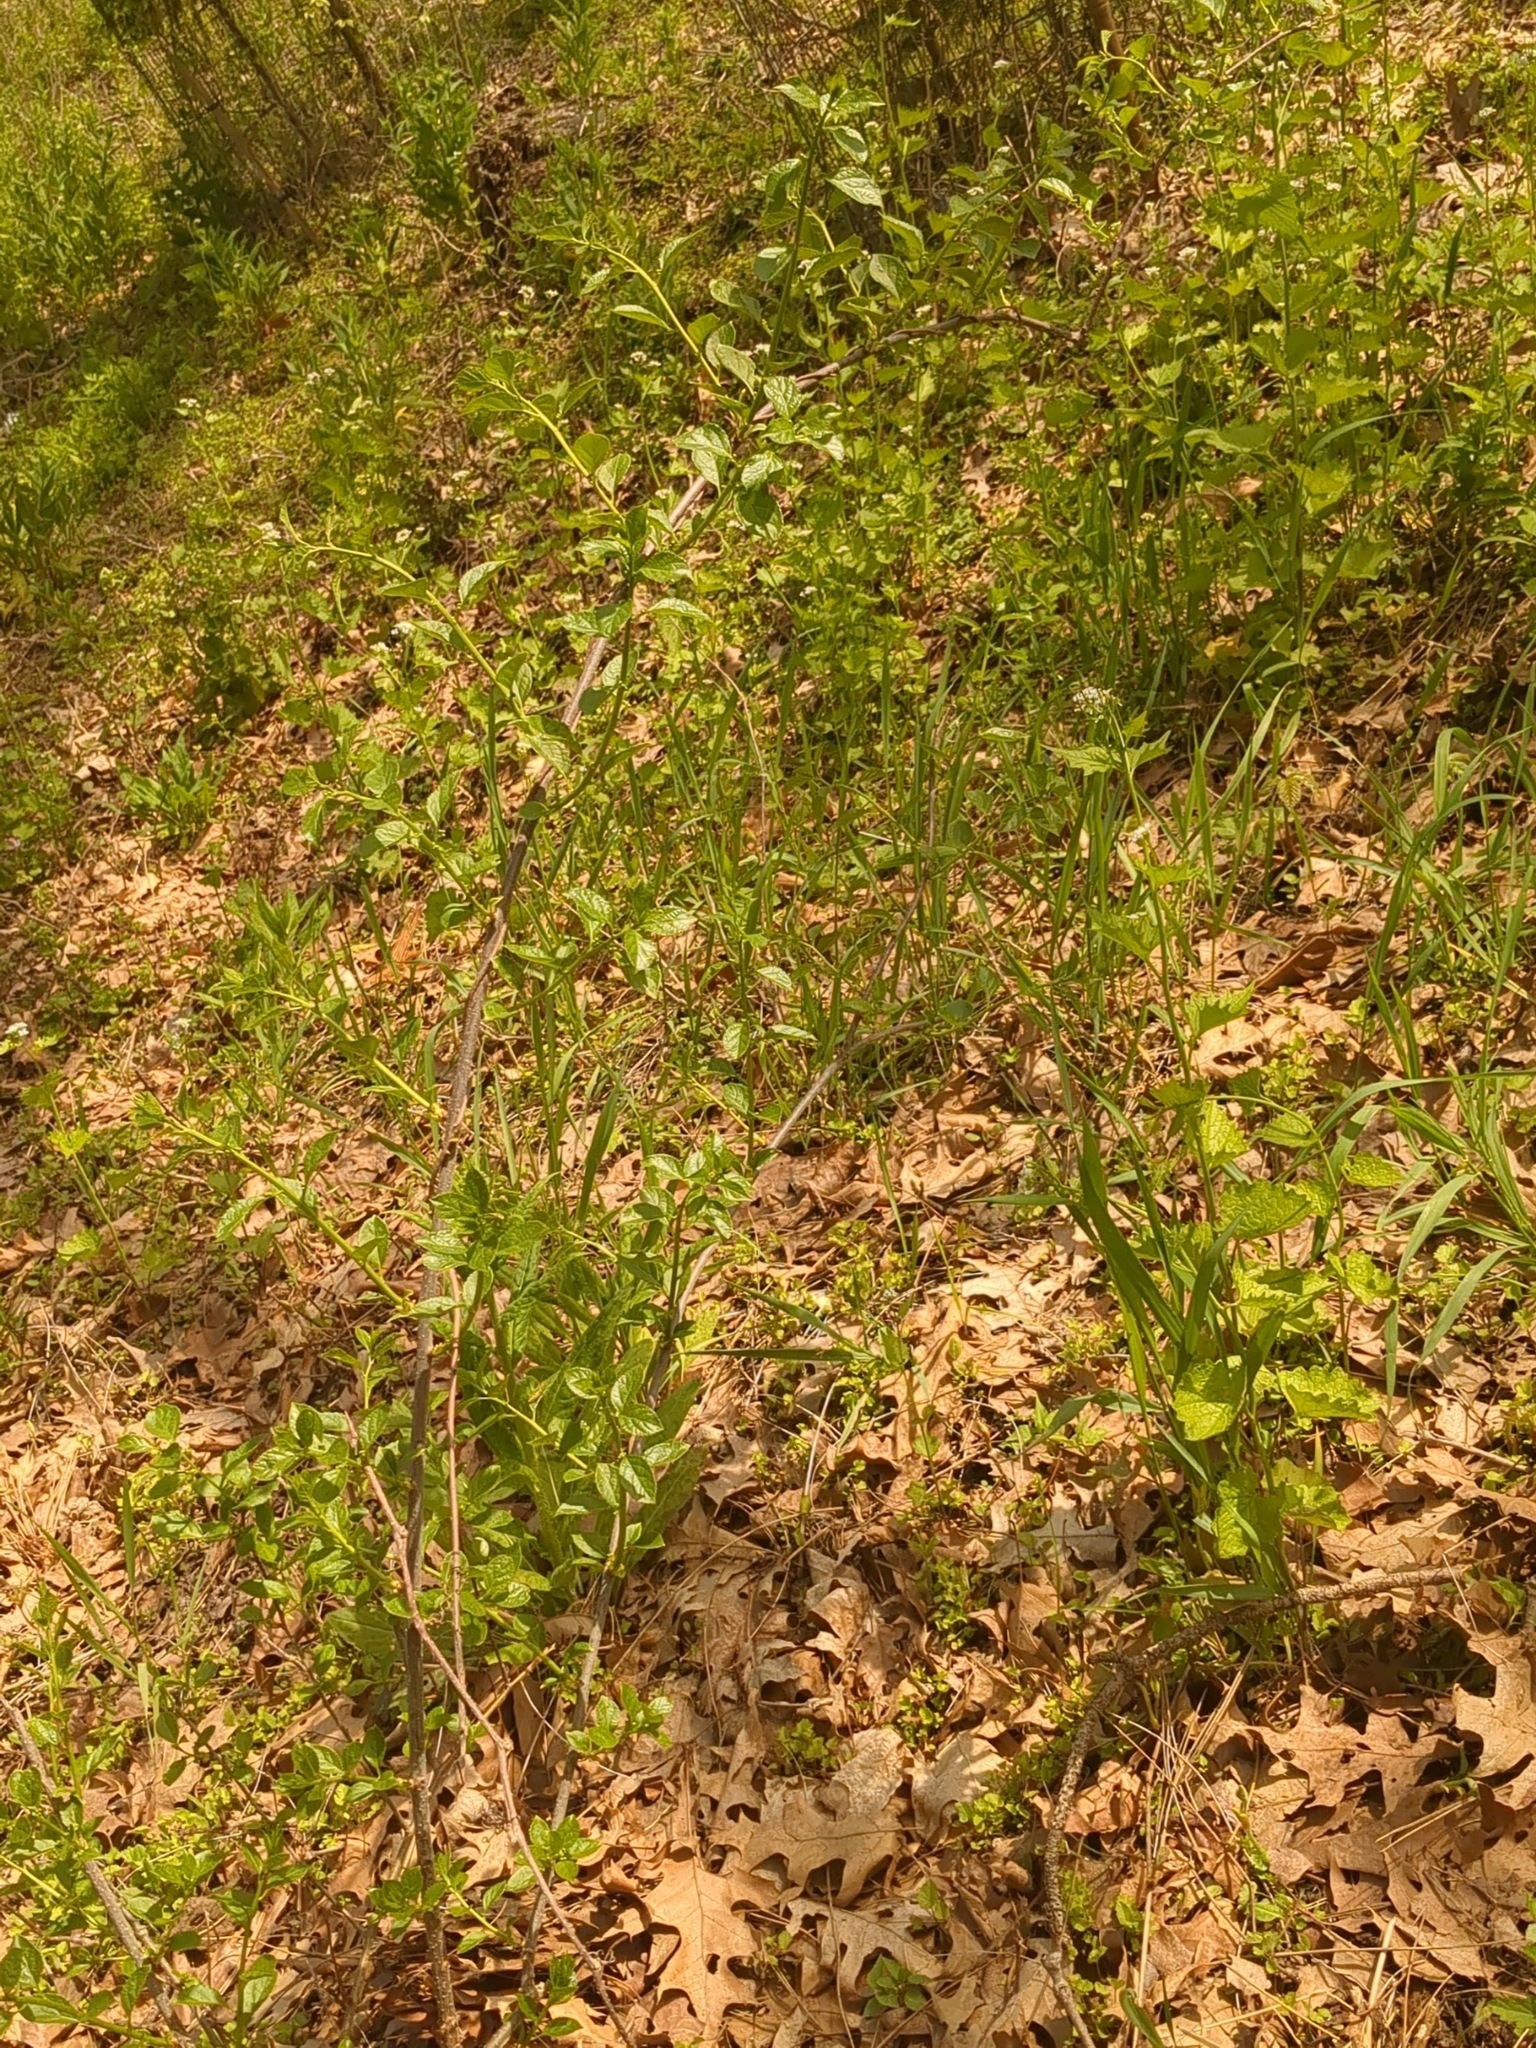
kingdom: Plantae
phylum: Tracheophyta
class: Magnoliopsida
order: Celastrales
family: Celastraceae
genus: Celastrus
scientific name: Celastrus orbiculatus
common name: Oriental bittersweet
